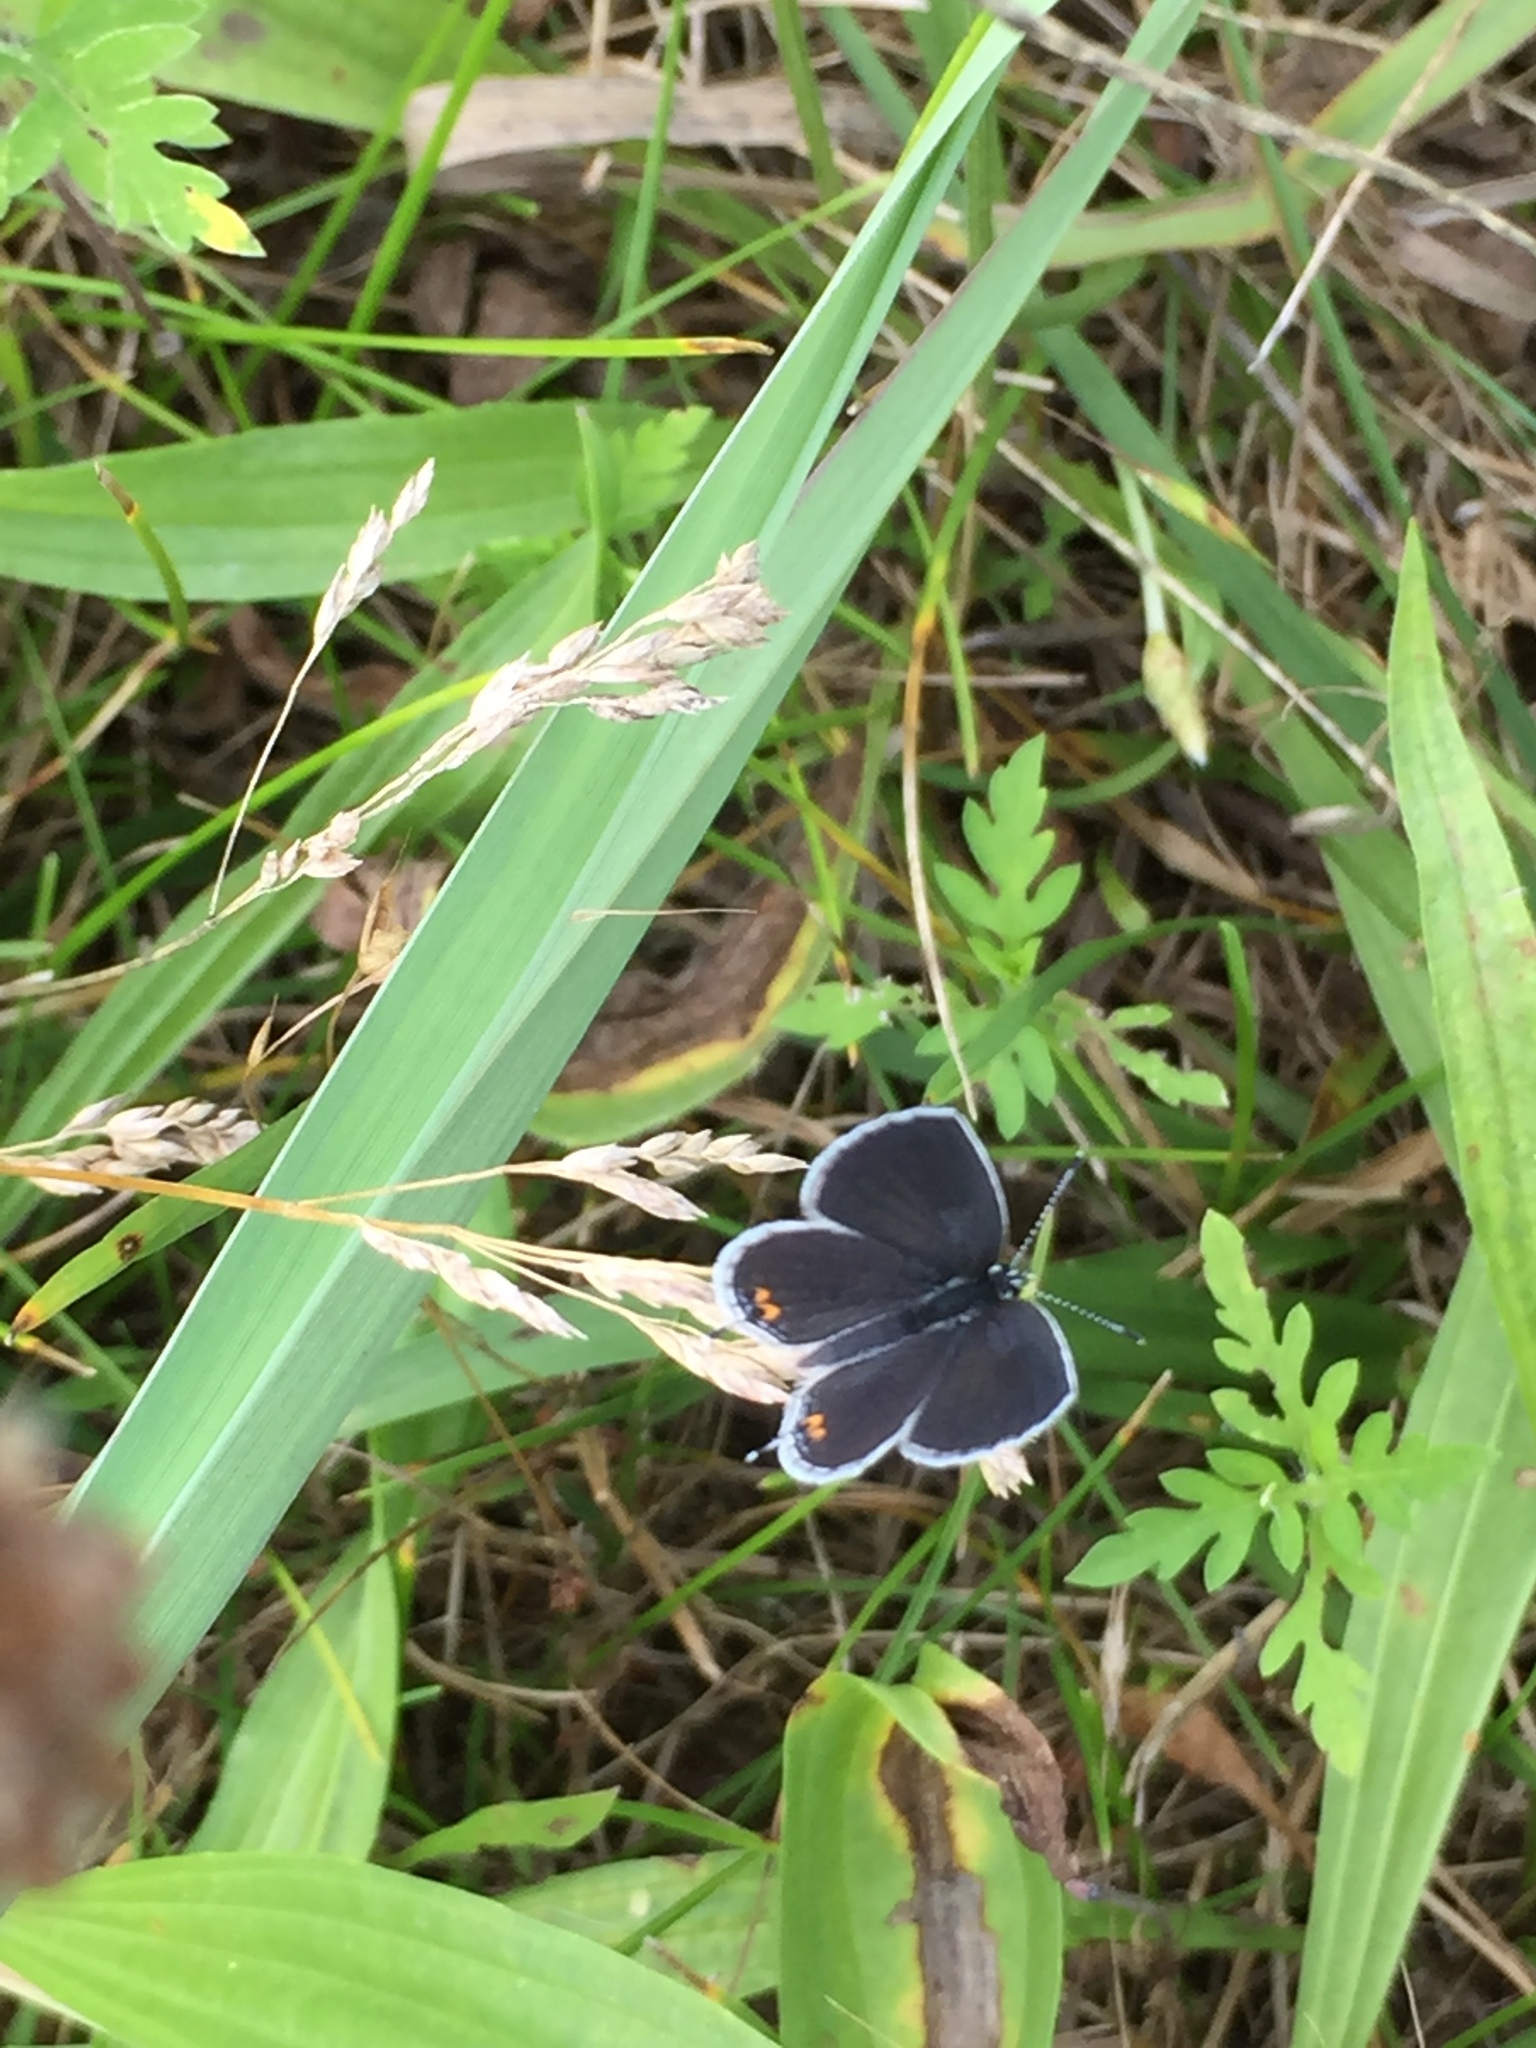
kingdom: Animalia
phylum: Arthropoda
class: Insecta
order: Lepidoptera
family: Lycaenidae
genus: Elkalyce
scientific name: Elkalyce comyntas
